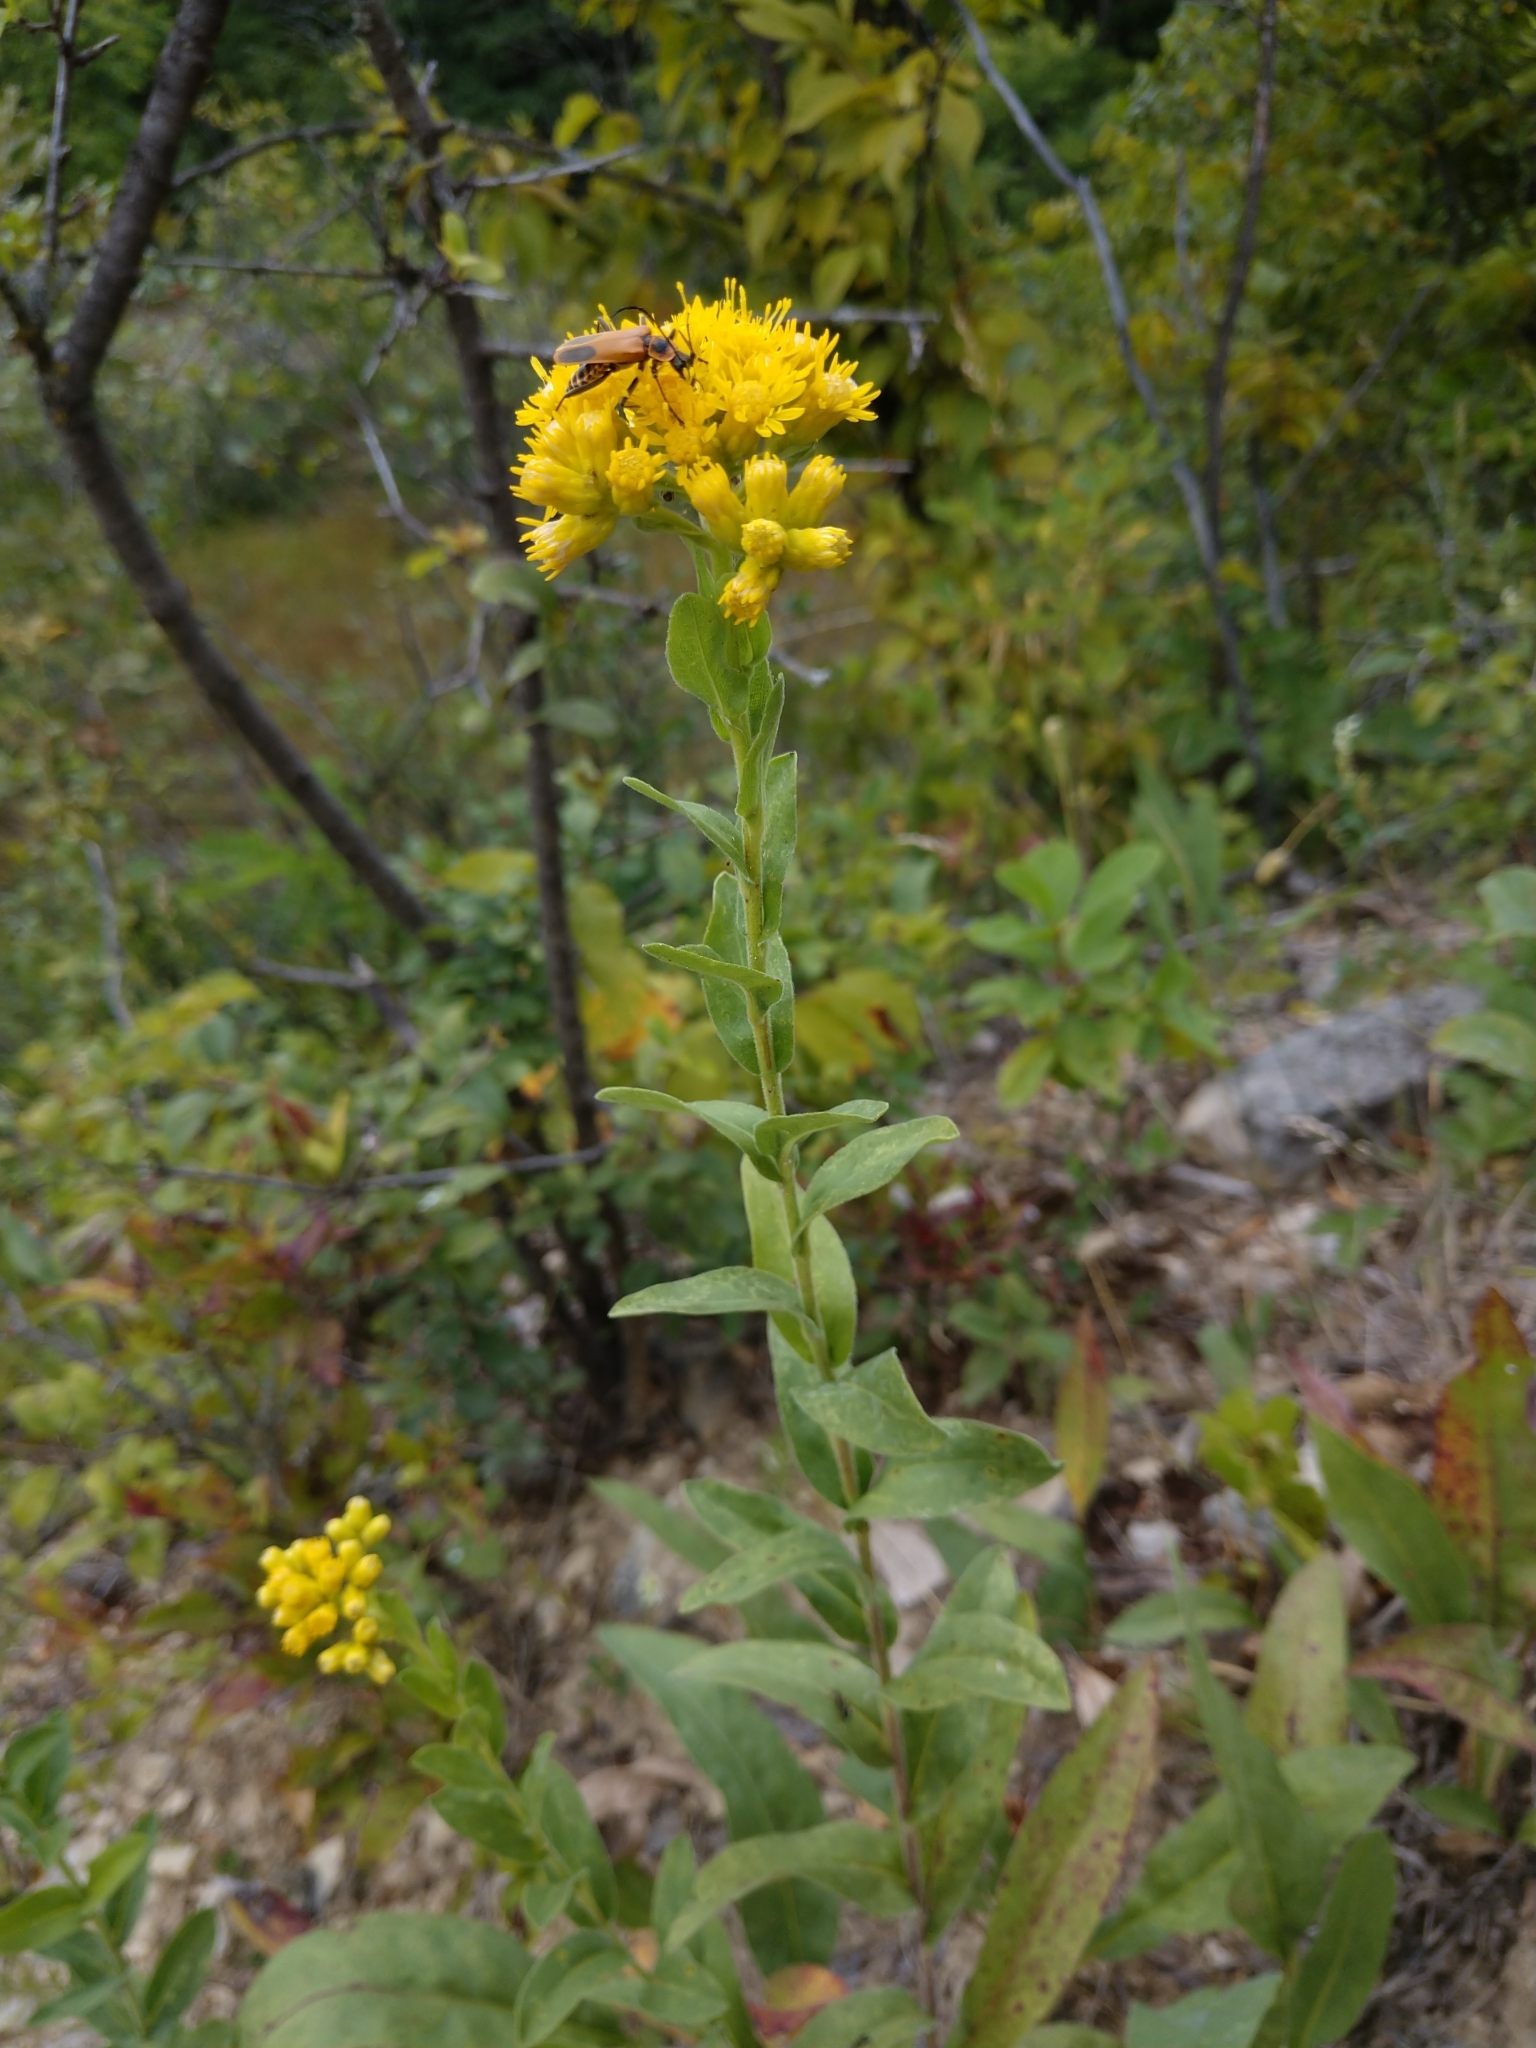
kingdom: Plantae
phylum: Tracheophyta
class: Magnoliopsida
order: Asterales
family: Asteraceae
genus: Solidago
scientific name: Solidago rigida
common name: Rigid goldenrod
